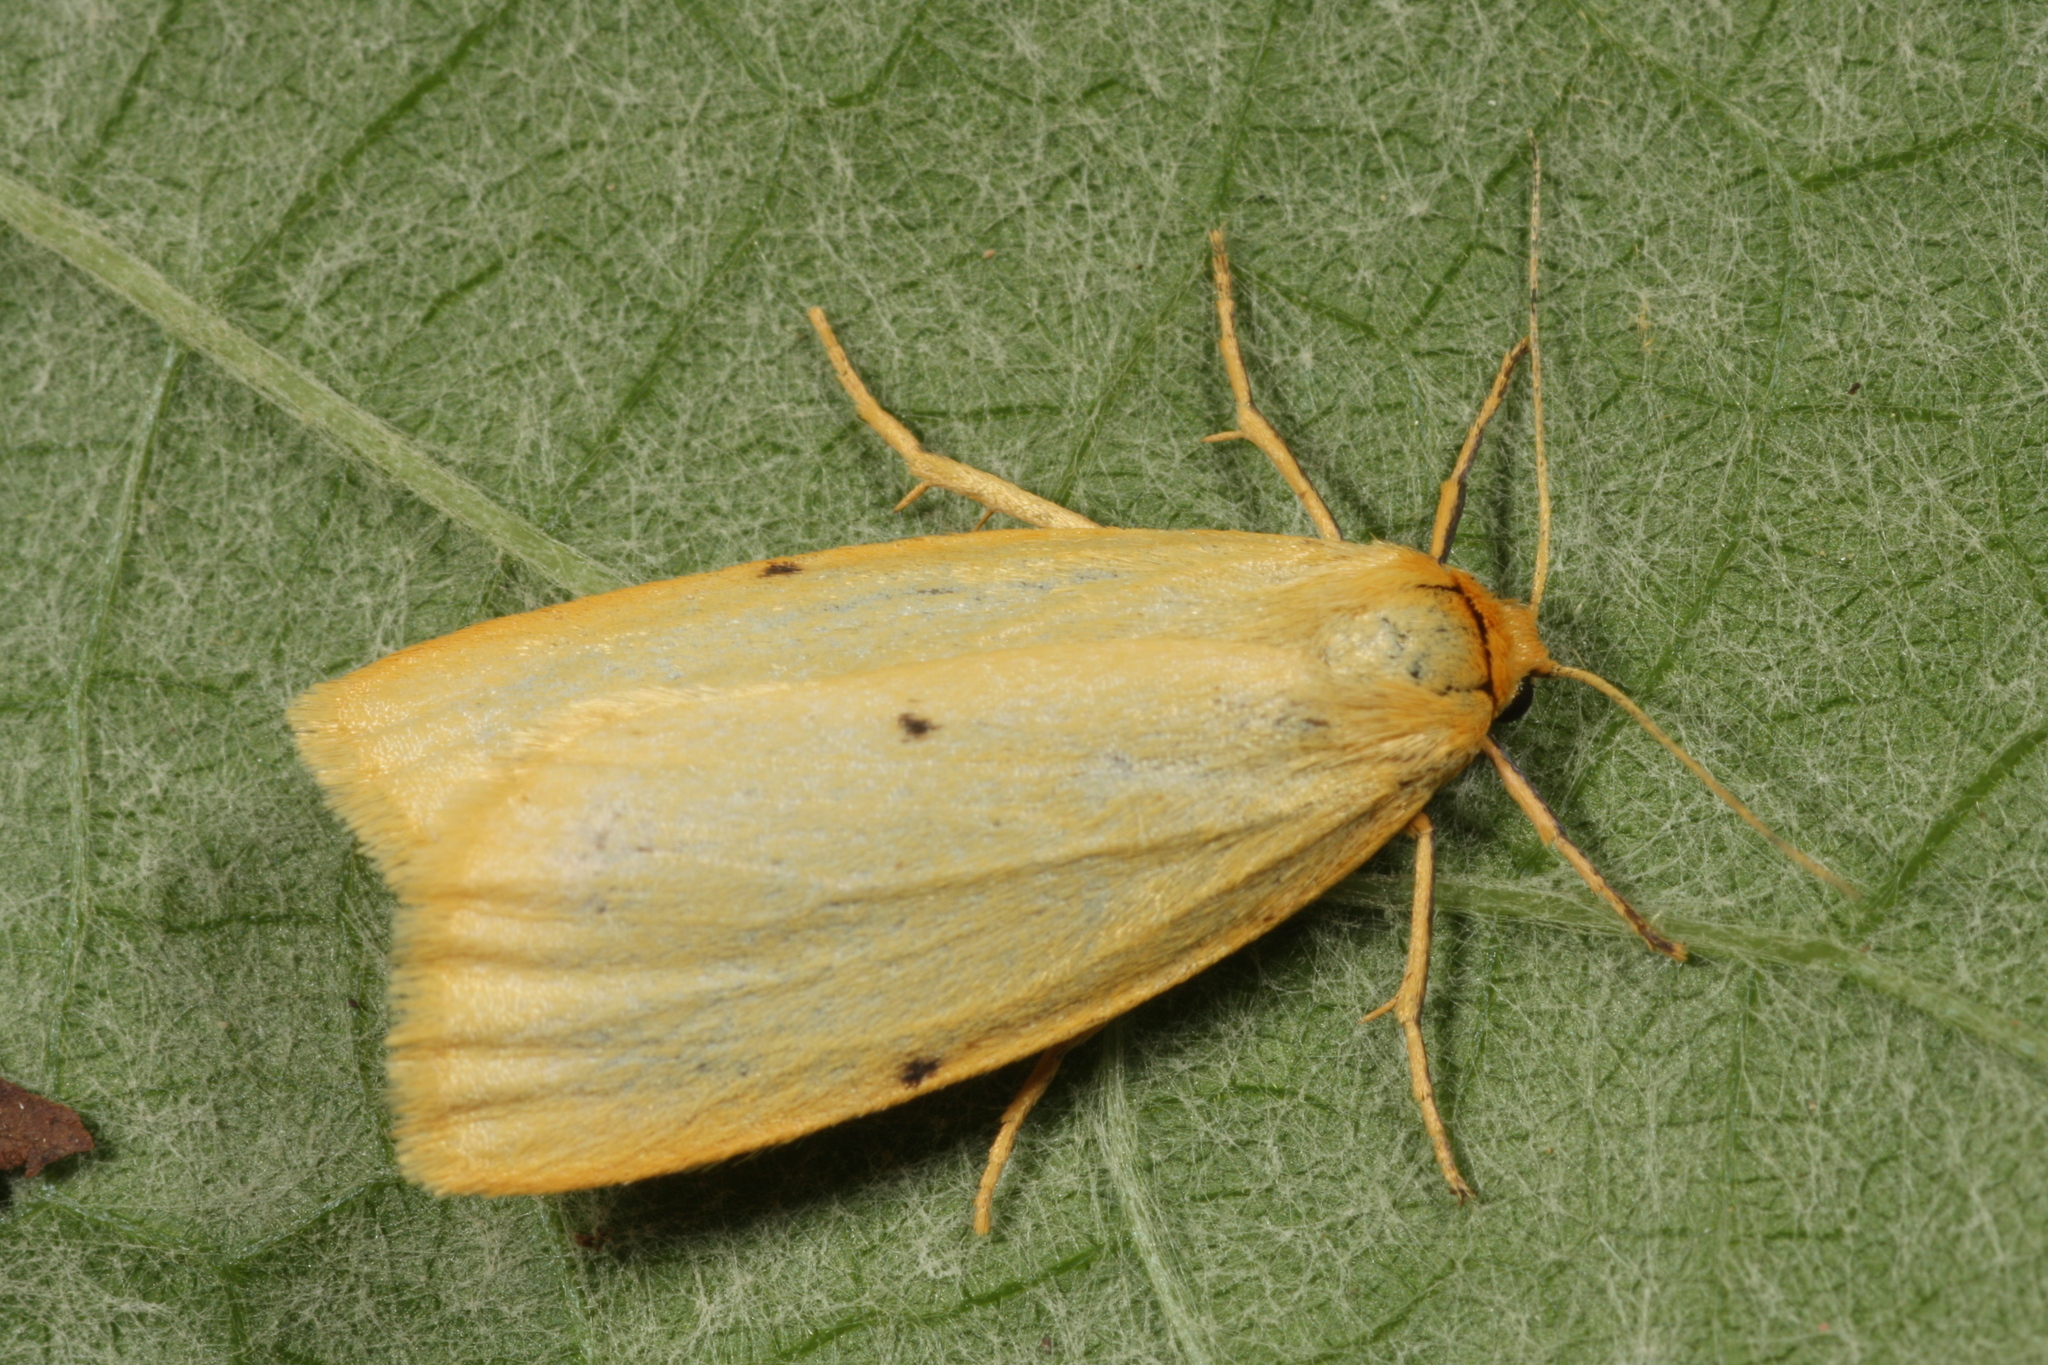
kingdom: Animalia
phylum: Arthropoda
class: Insecta
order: Lepidoptera
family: Erebidae
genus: Cybosia
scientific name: Cybosia mesomella
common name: Four-dotted footman
